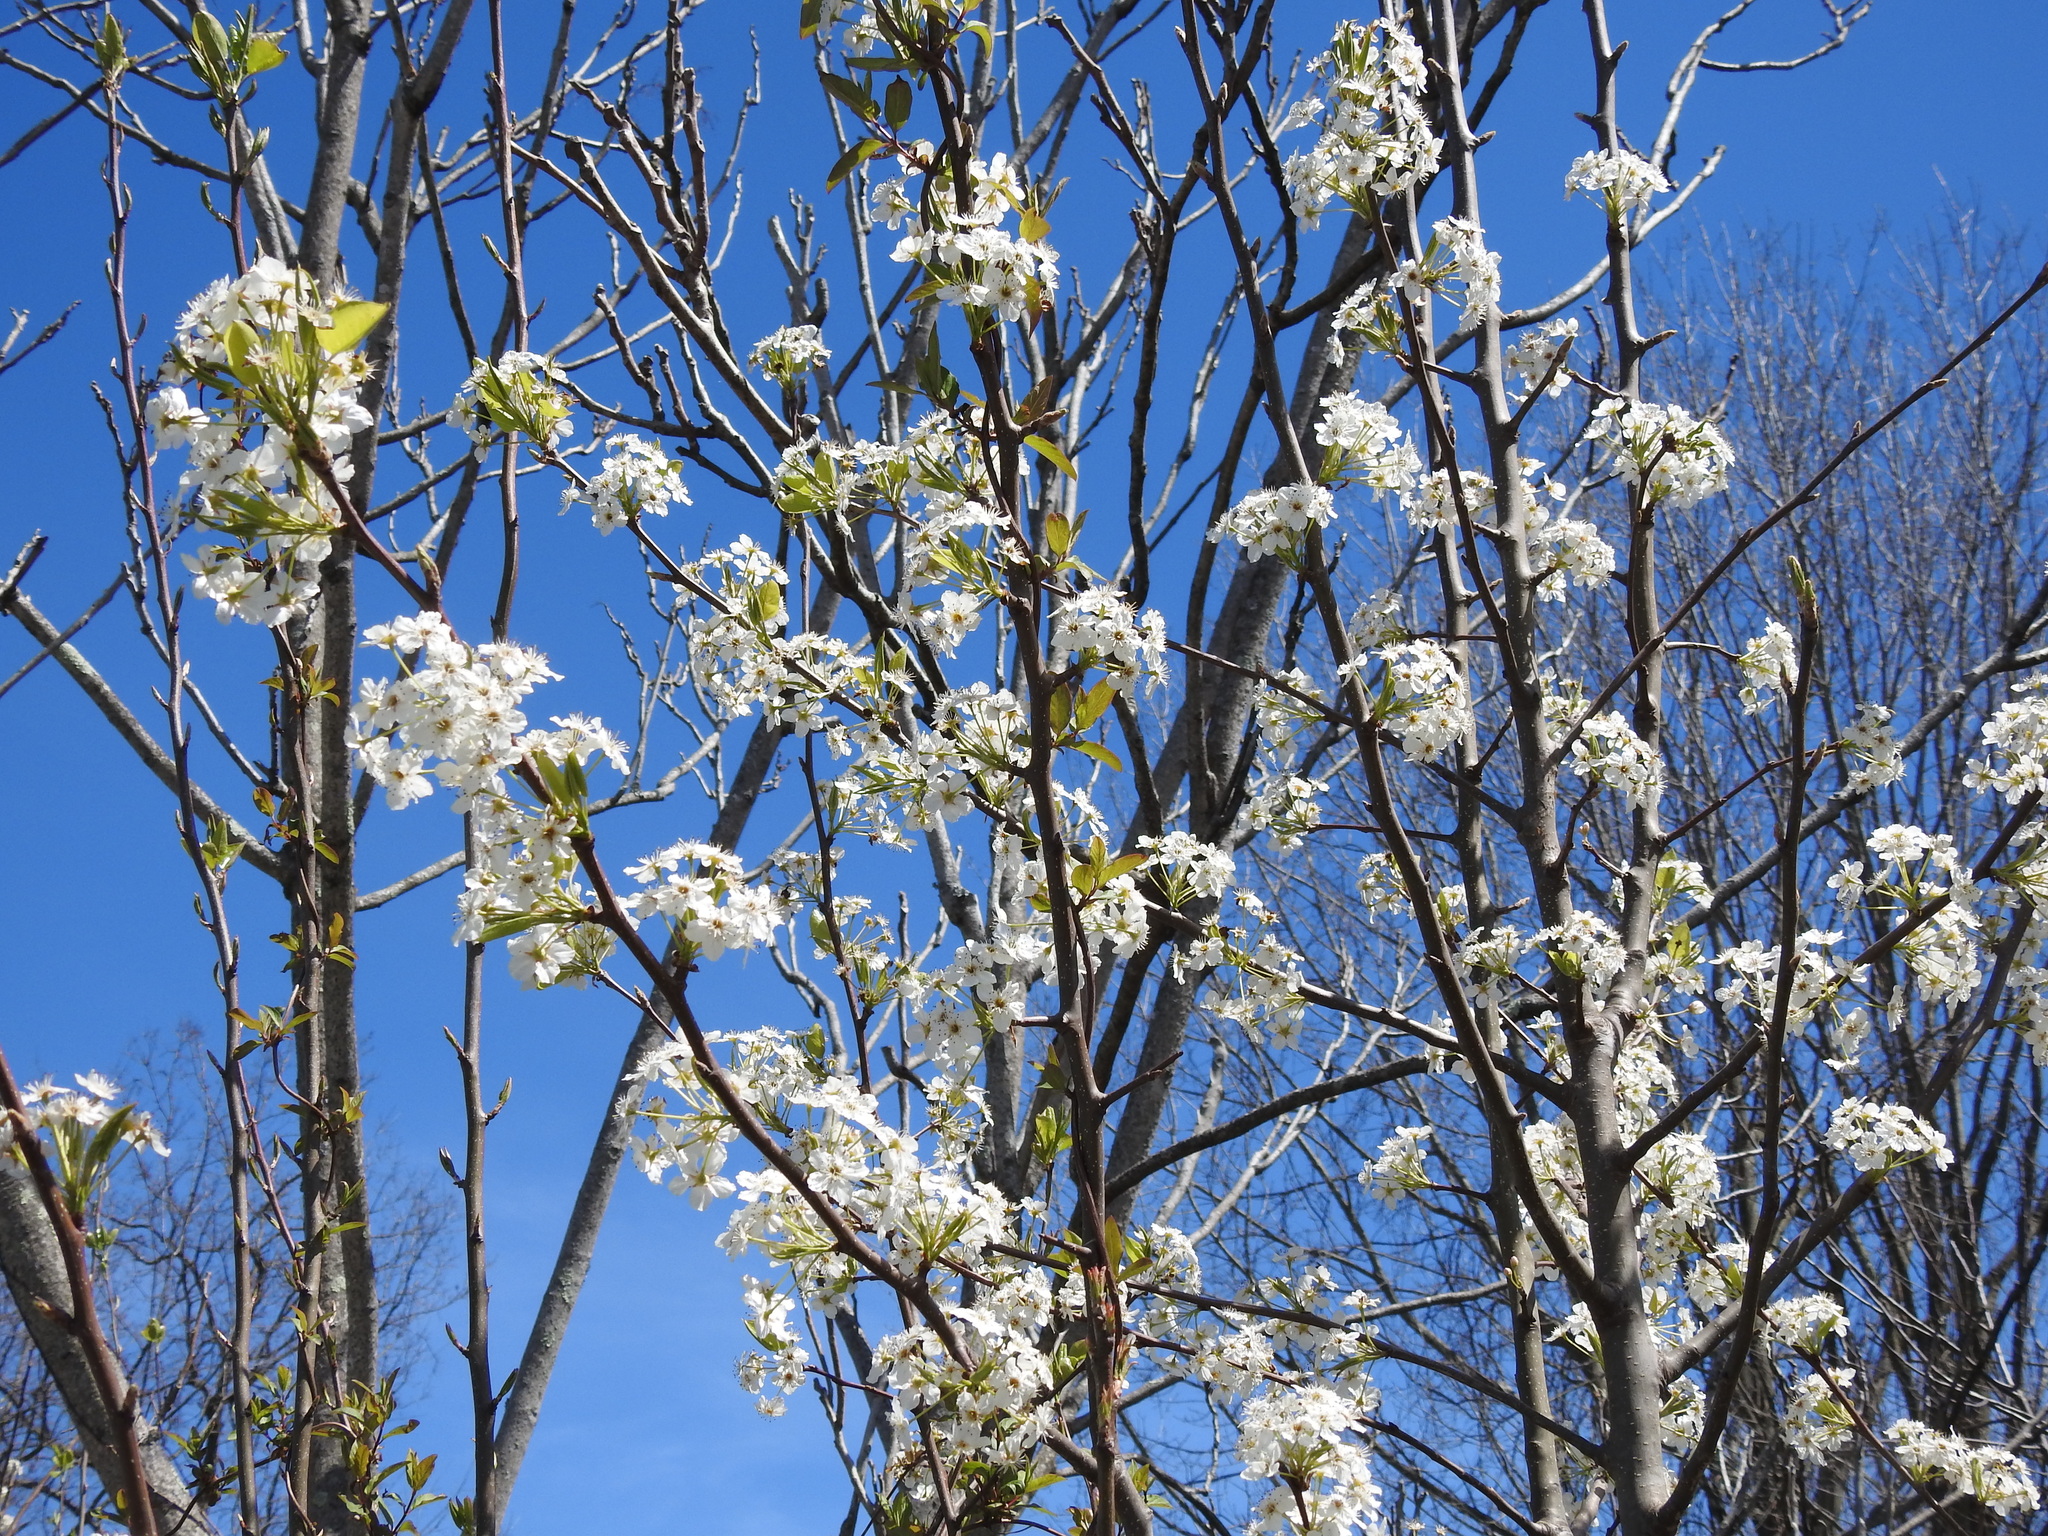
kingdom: Plantae
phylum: Tracheophyta
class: Magnoliopsida
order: Rosales
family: Rosaceae
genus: Pyrus
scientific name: Pyrus calleryana
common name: Callery pear
